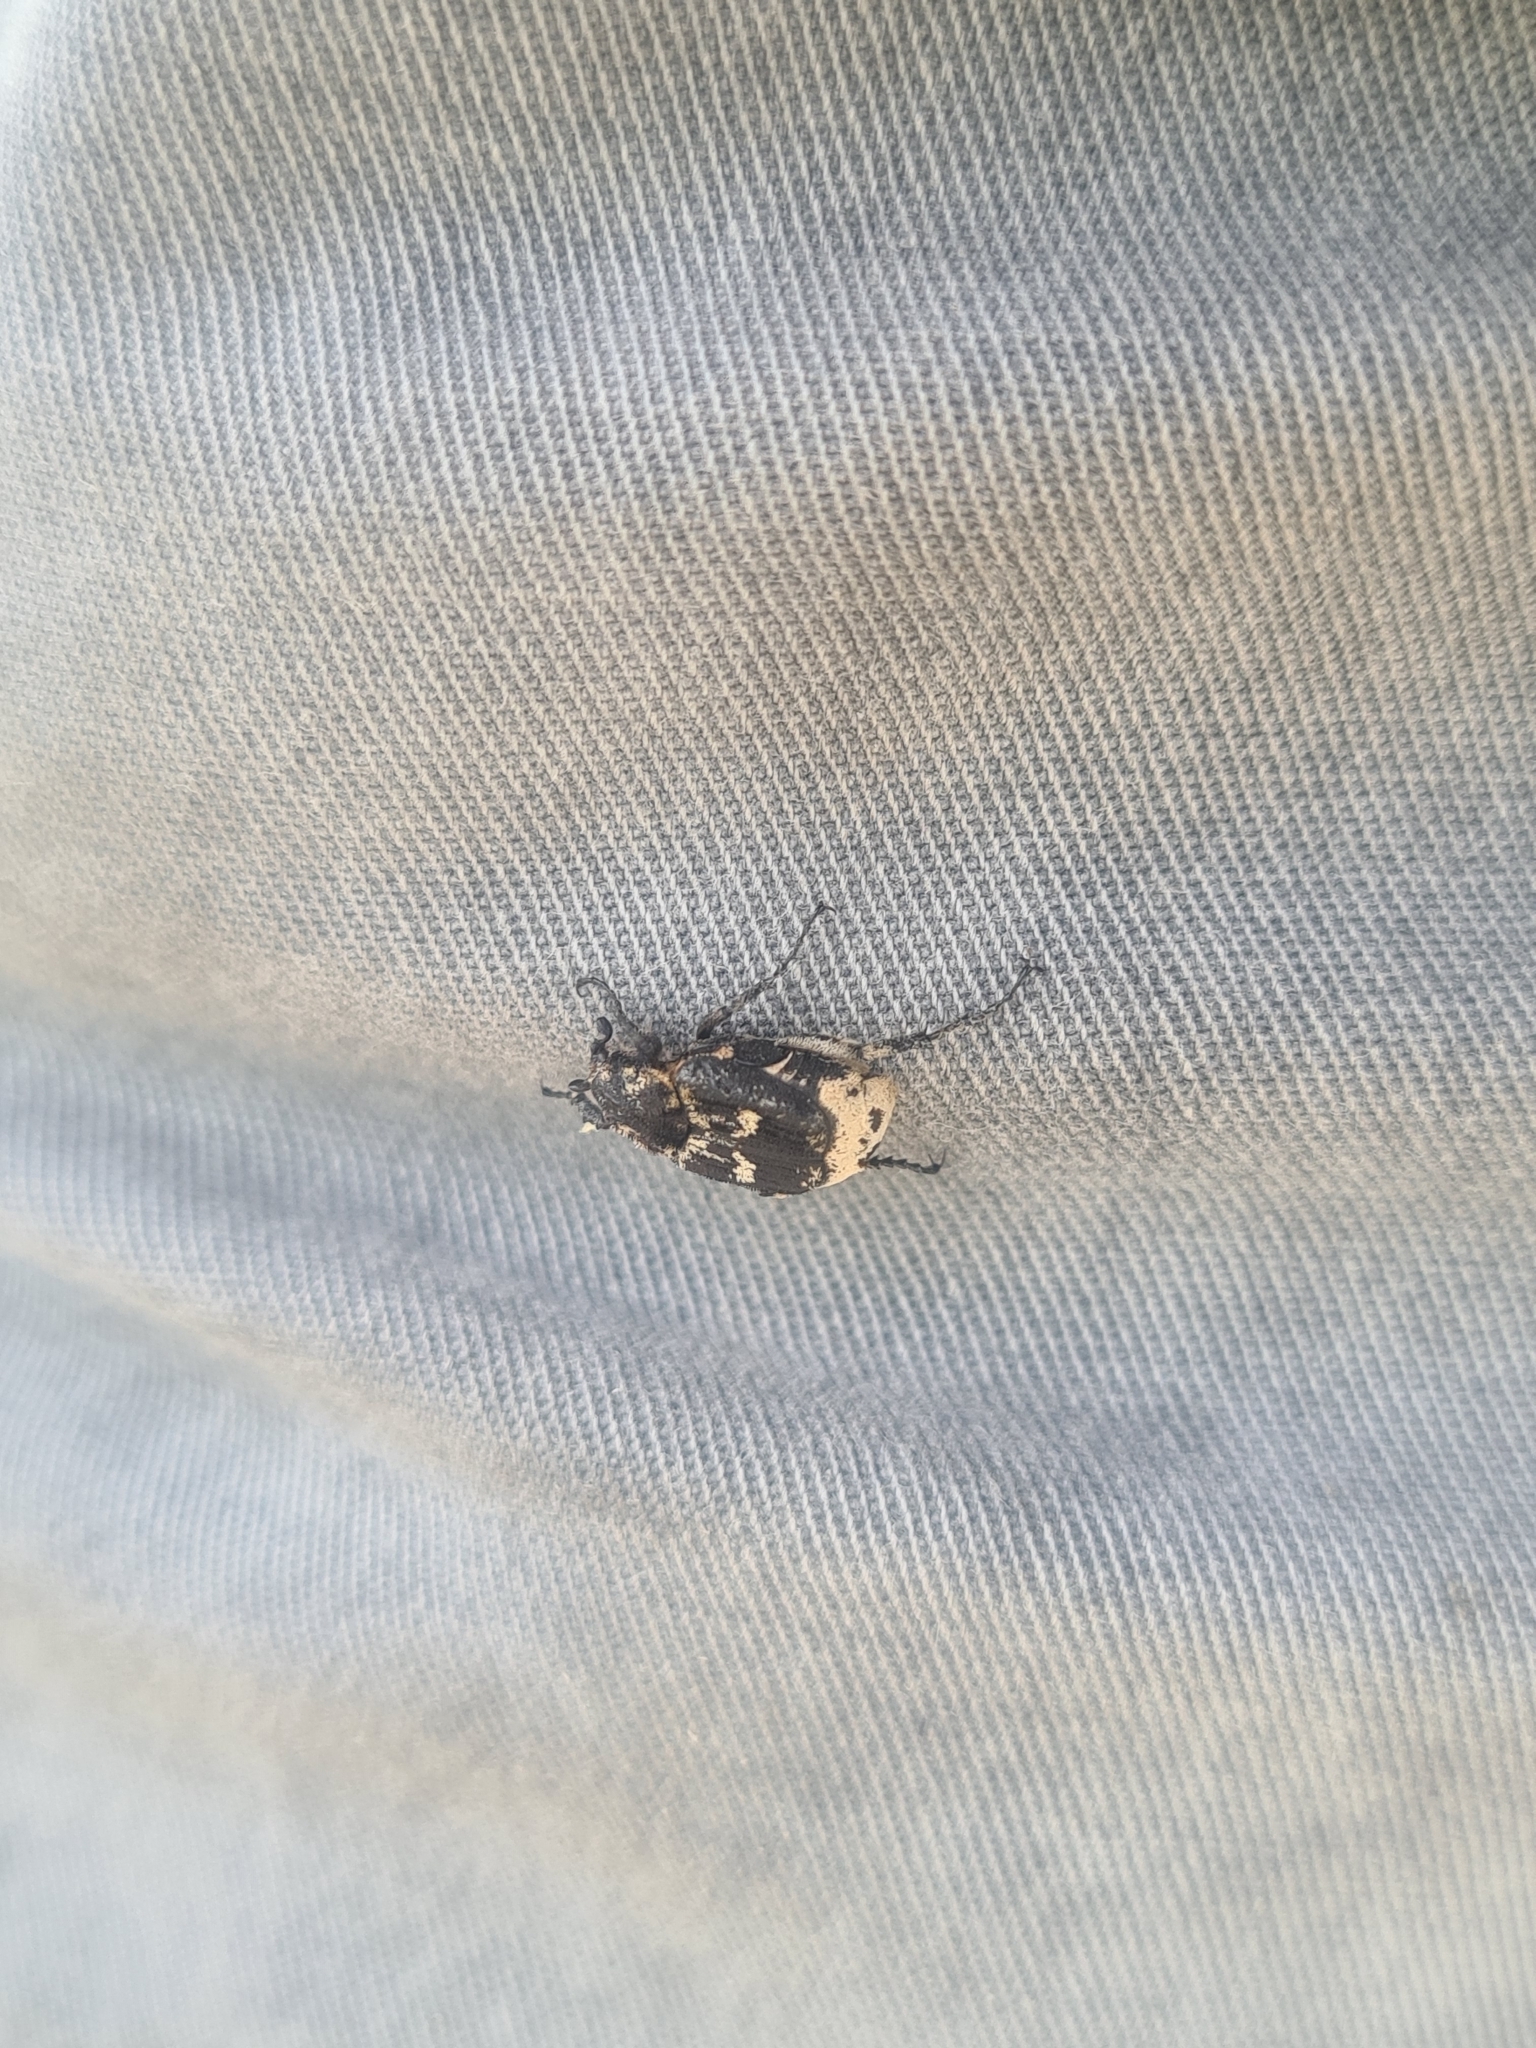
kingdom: Animalia
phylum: Arthropoda
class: Insecta
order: Coleoptera
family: Scarabaeidae
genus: Valgus
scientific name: Valgus hemipterus
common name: Bug flower chafer
